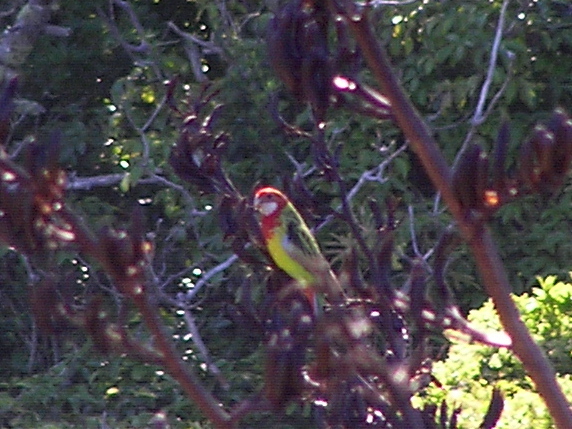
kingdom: Animalia
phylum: Chordata
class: Aves
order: Psittaciformes
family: Psittacidae
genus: Platycercus
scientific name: Platycercus eximius
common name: Eastern rosella
